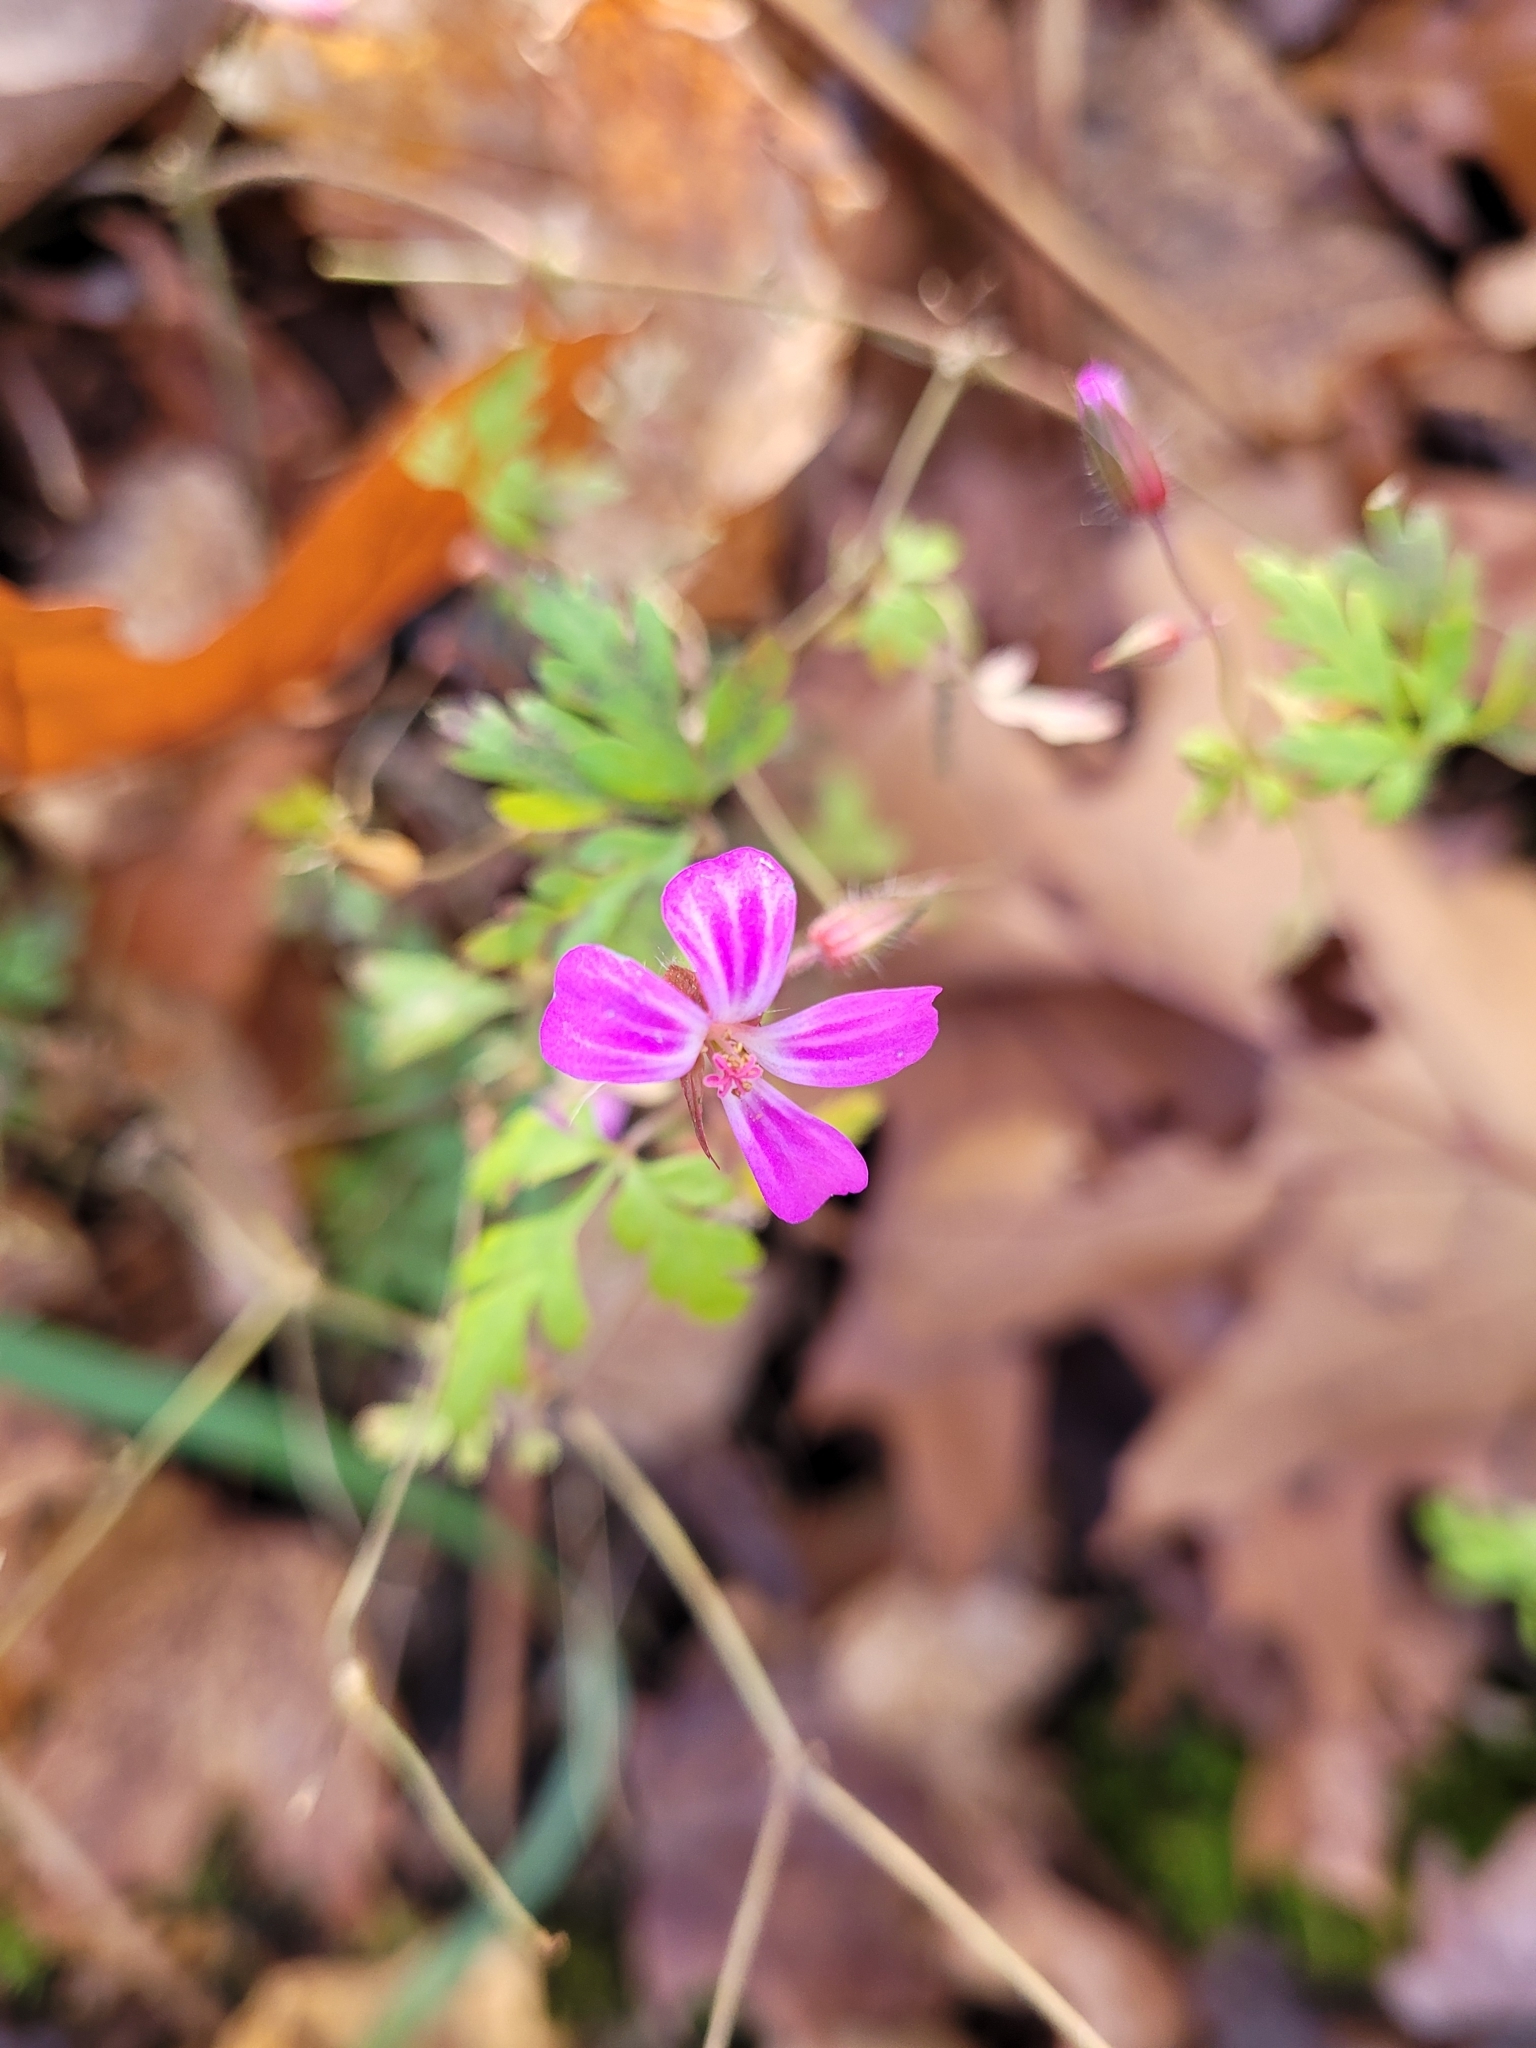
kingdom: Plantae
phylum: Tracheophyta
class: Magnoliopsida
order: Geraniales
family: Geraniaceae
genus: Geranium
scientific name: Geranium robertianum
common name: Herb-robert
